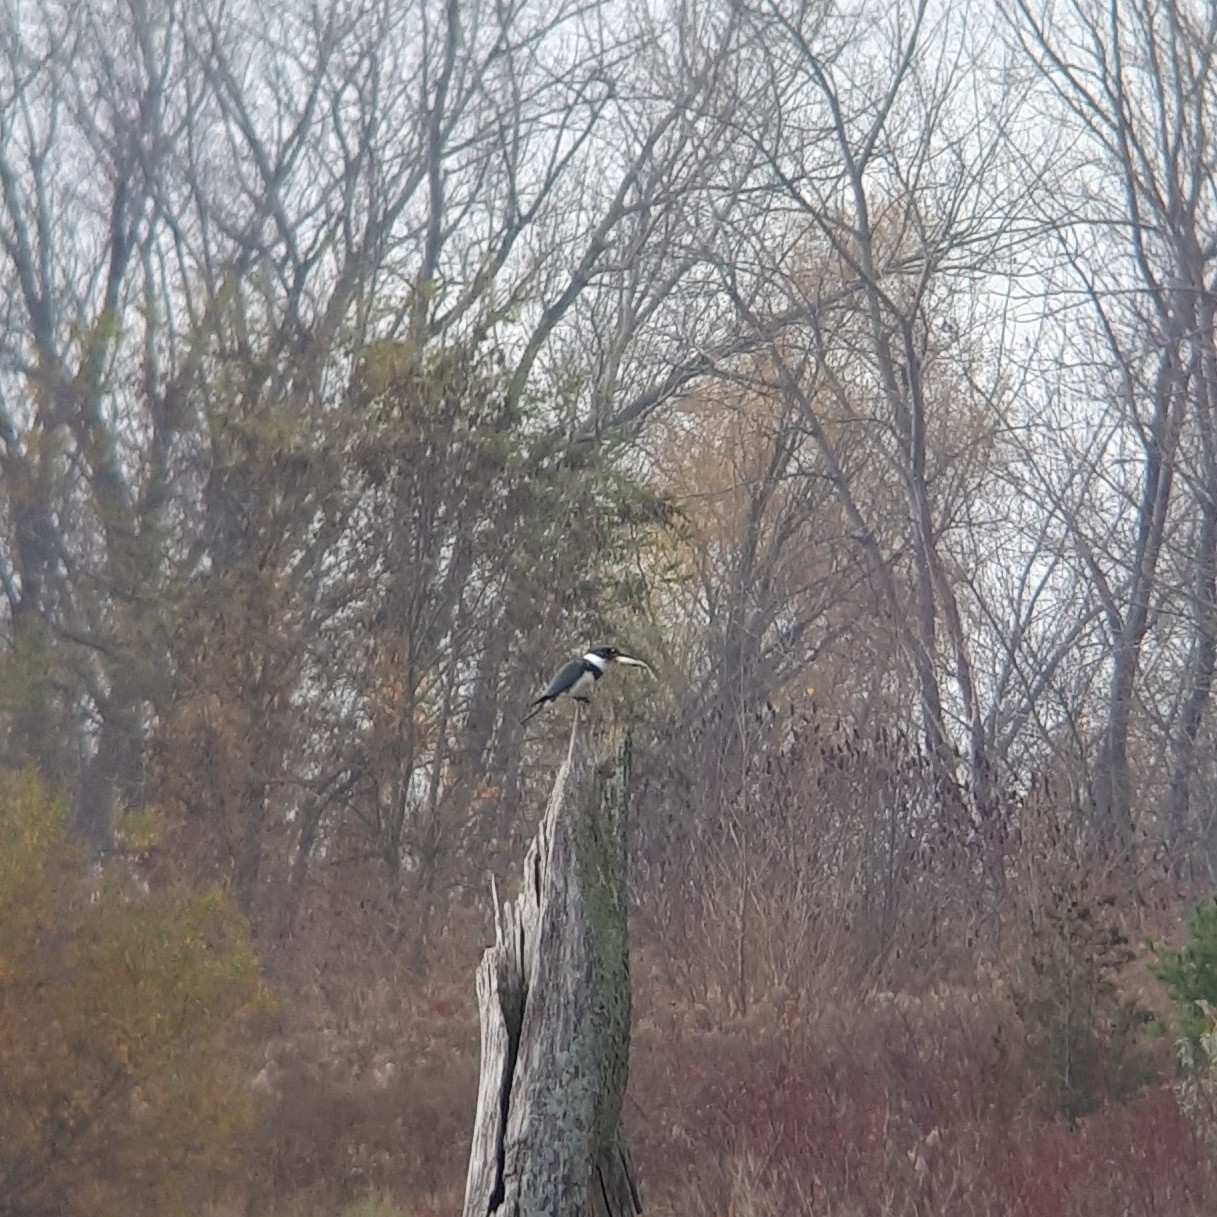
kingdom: Animalia
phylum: Chordata
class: Aves
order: Coraciiformes
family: Alcedinidae
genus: Megaceryle
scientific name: Megaceryle alcyon
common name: Belted kingfisher
